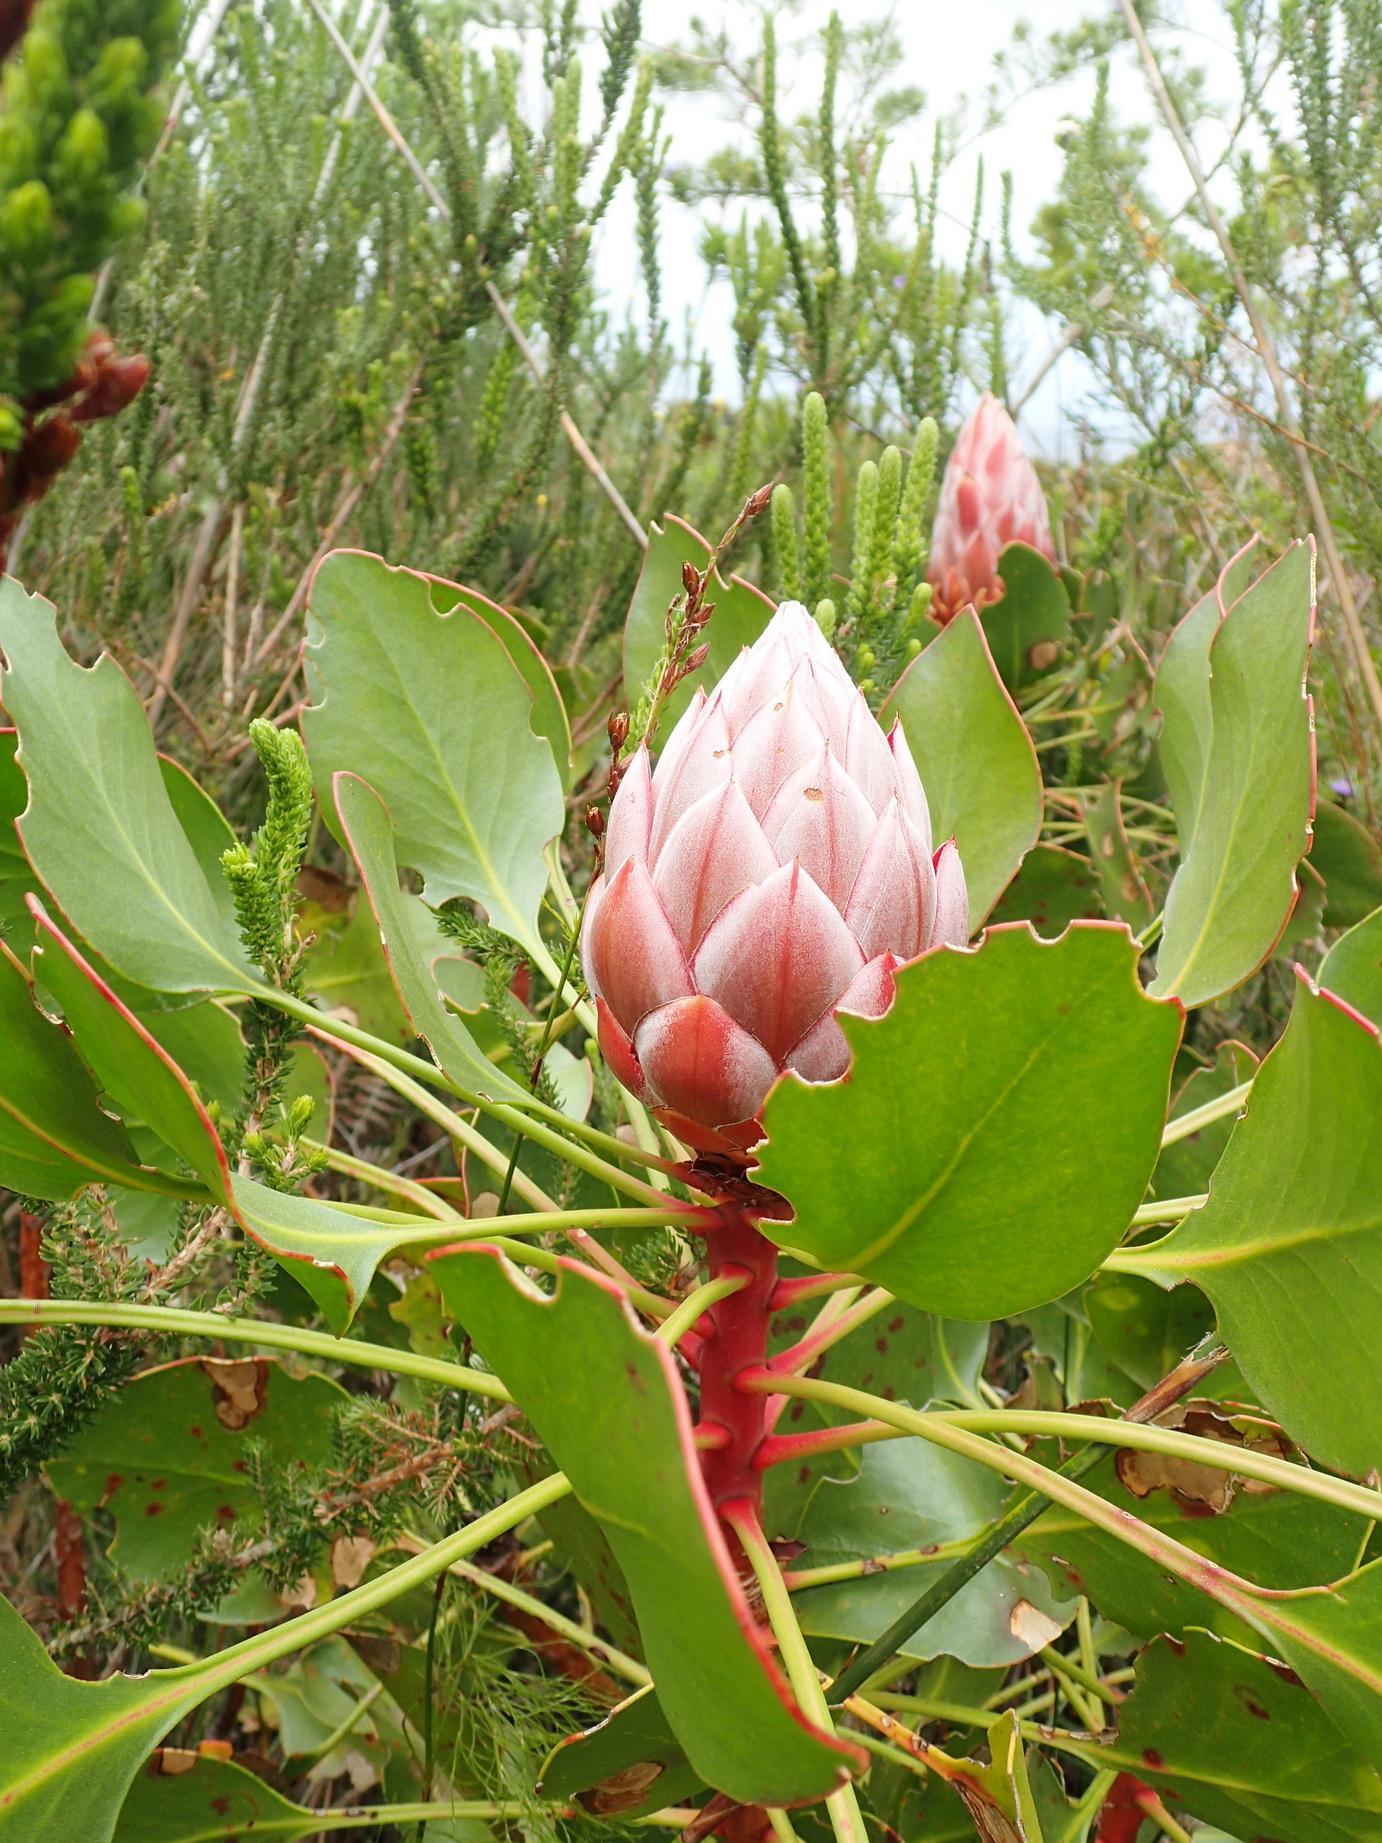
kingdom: Plantae
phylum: Tracheophyta
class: Magnoliopsida
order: Proteales
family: Proteaceae
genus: Protea
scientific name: Protea cynaroides
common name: King protea
